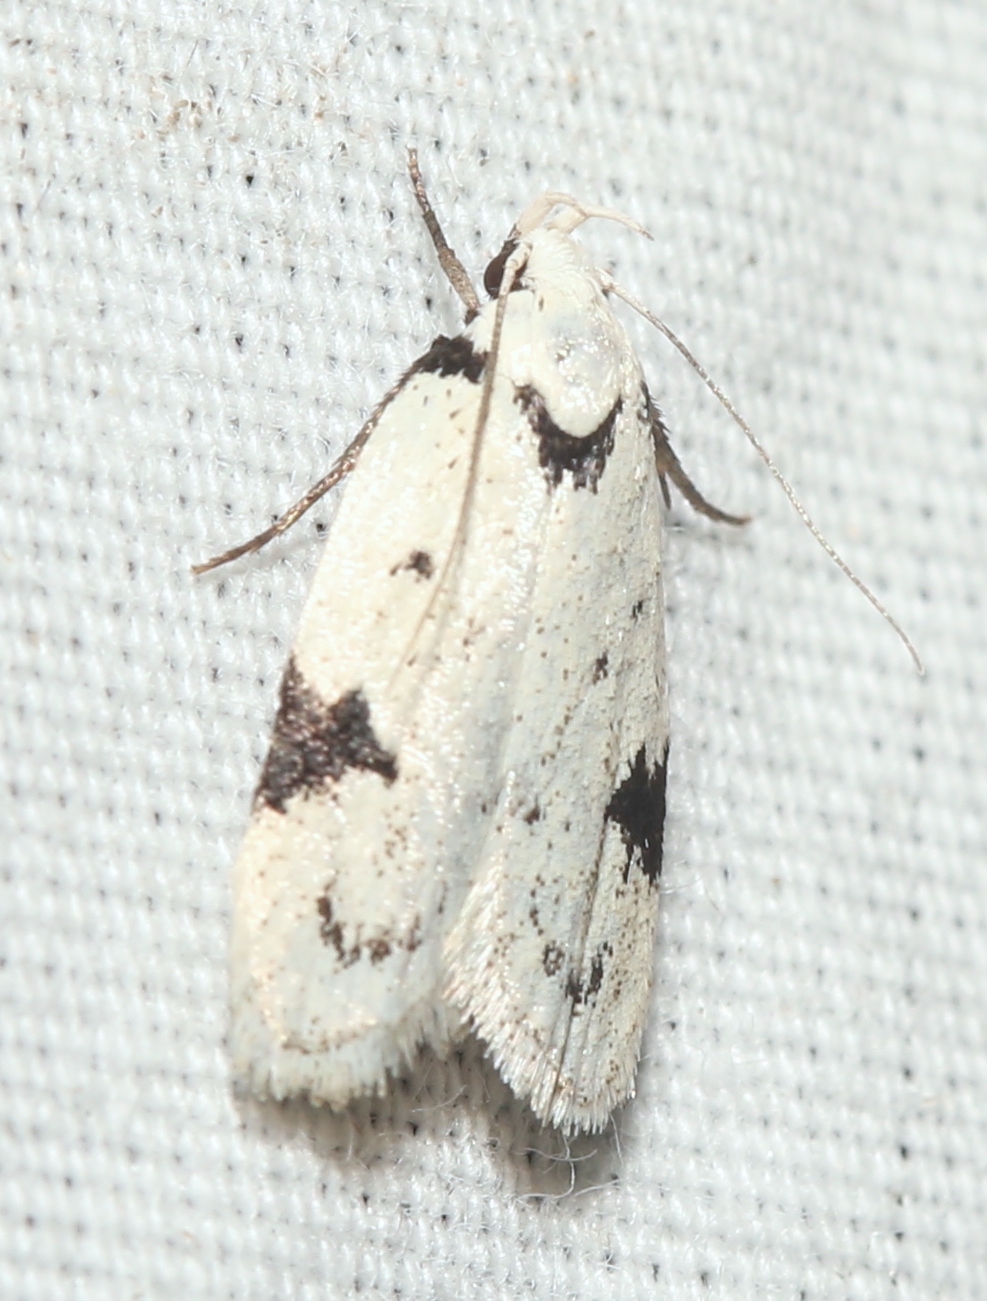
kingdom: Animalia
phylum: Arthropoda
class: Insecta
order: Lepidoptera
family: Oecophoridae
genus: Inga
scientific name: Inga sparsiciliella
